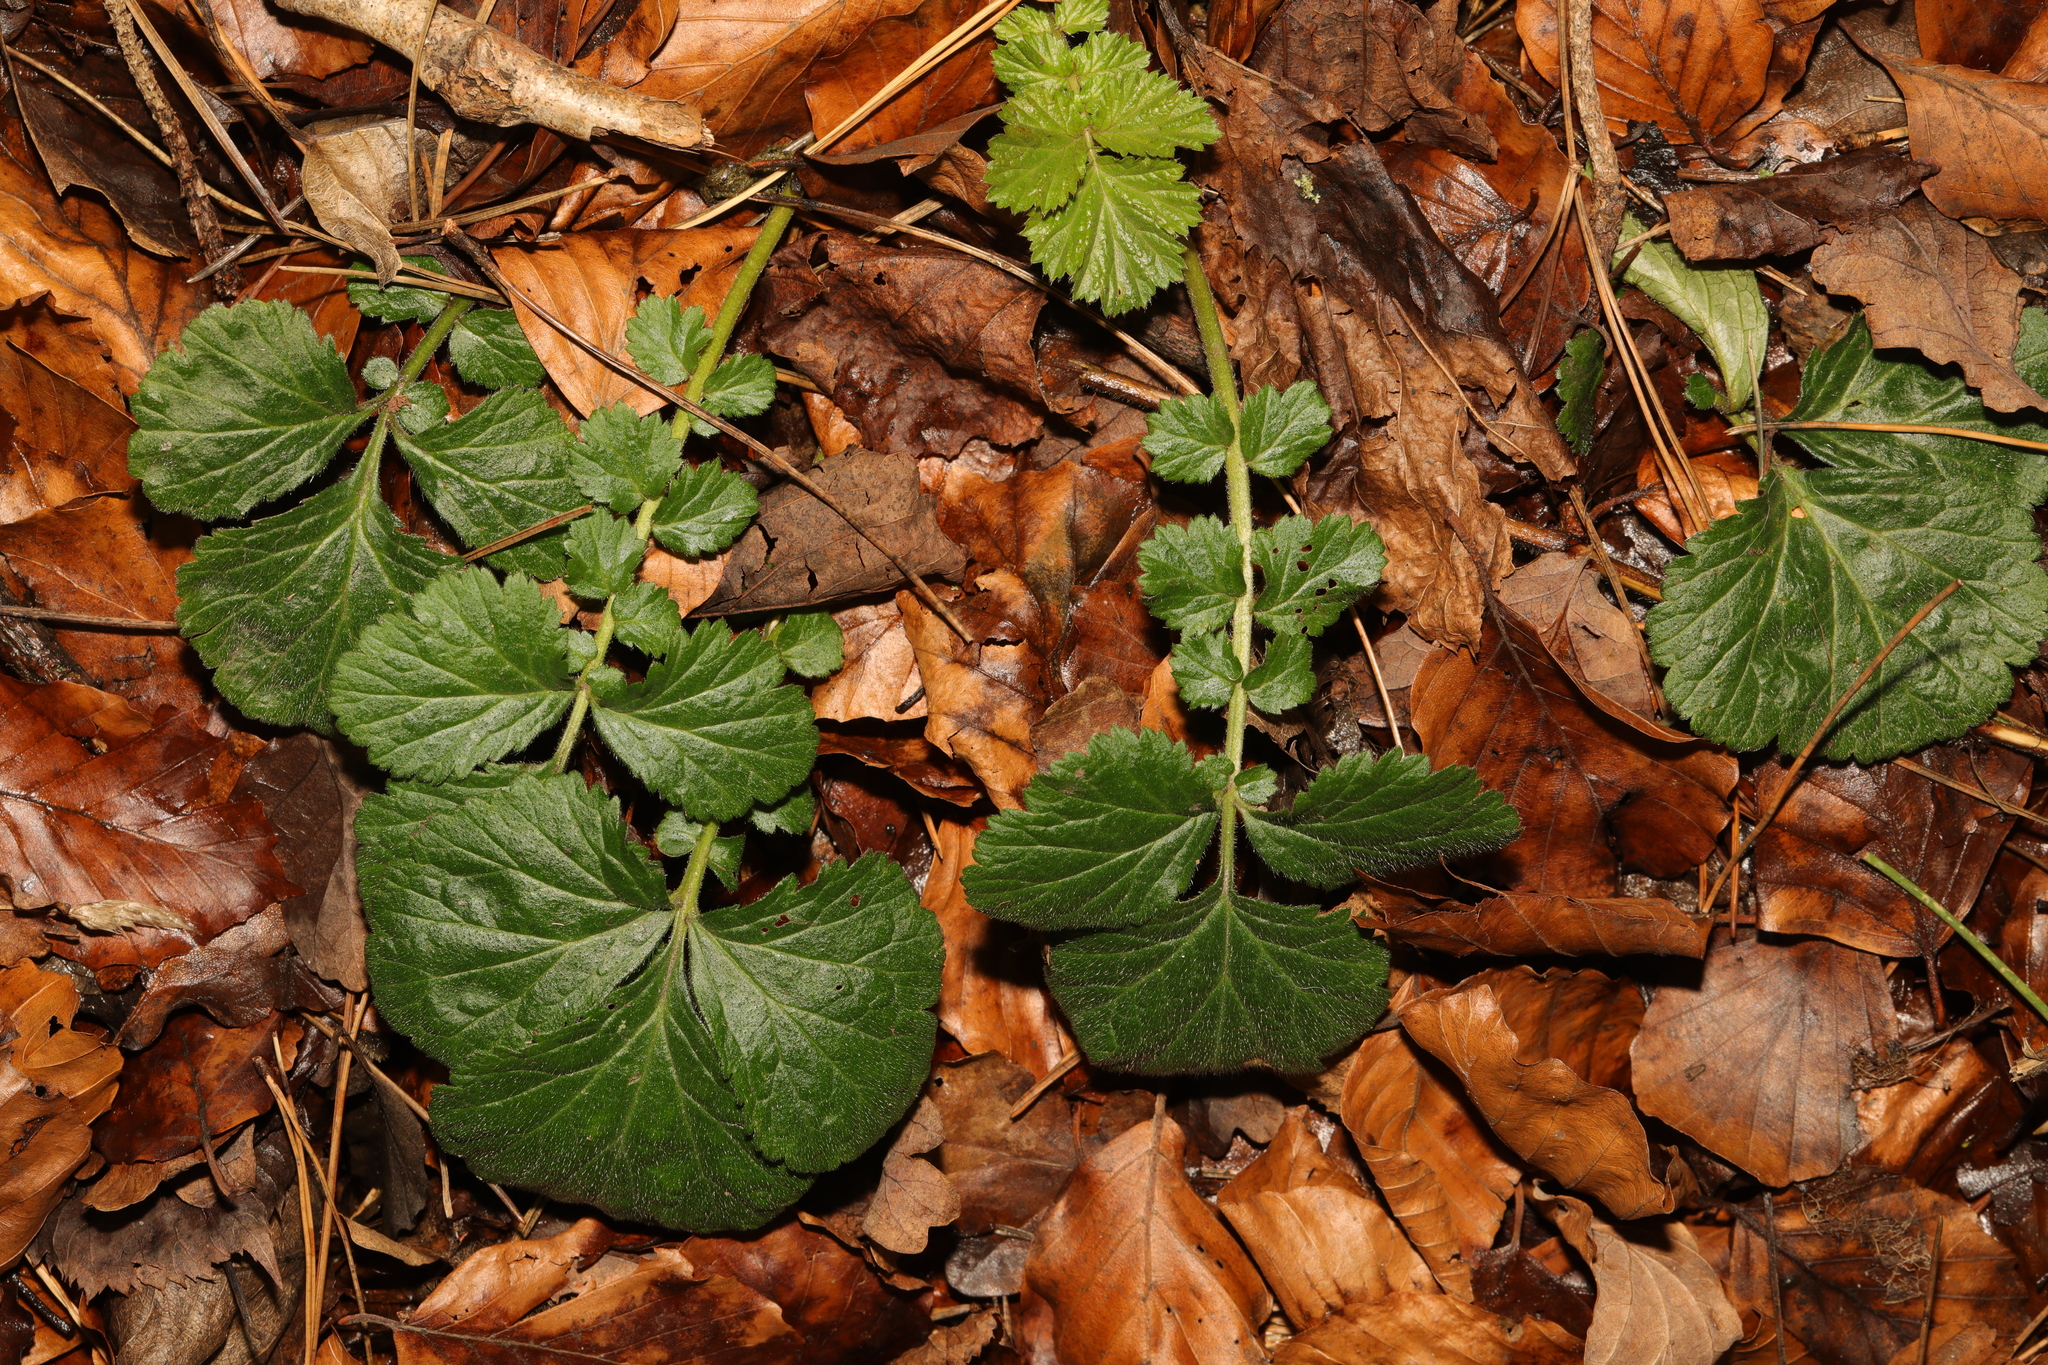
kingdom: Plantae
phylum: Tracheophyta
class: Magnoliopsida
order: Rosales
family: Rosaceae
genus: Geum
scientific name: Geum urbanum
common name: Wood avens
